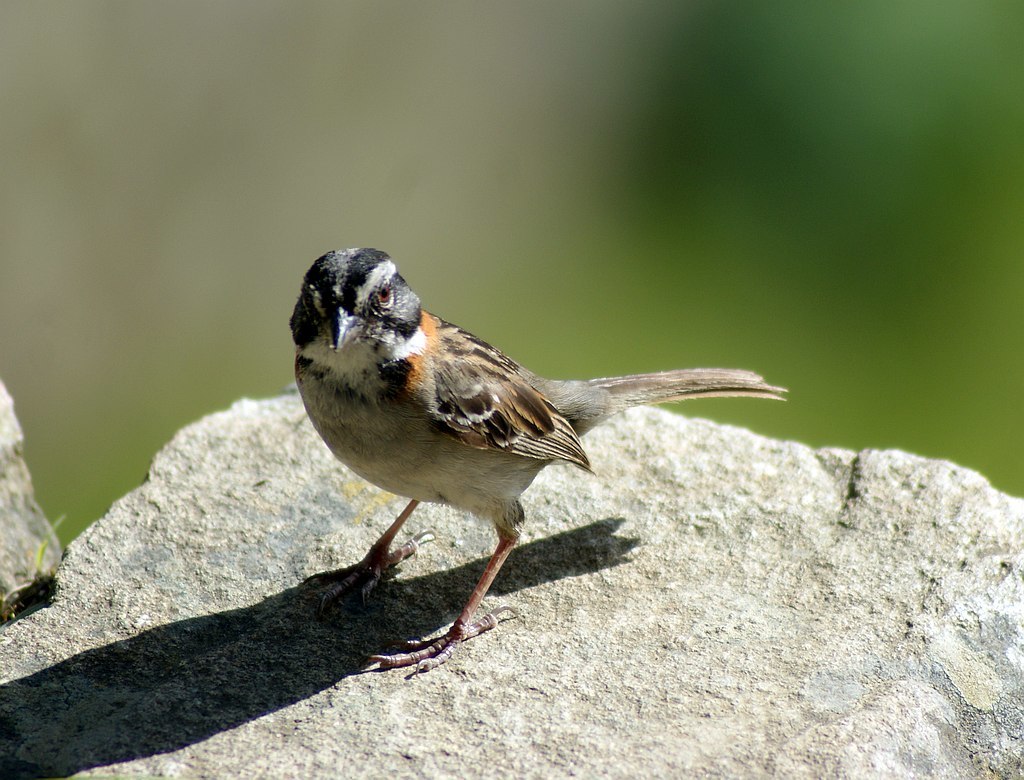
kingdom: Animalia
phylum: Chordata
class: Aves
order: Passeriformes
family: Passerellidae
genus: Zonotrichia
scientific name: Zonotrichia capensis
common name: Rufous-collared sparrow
